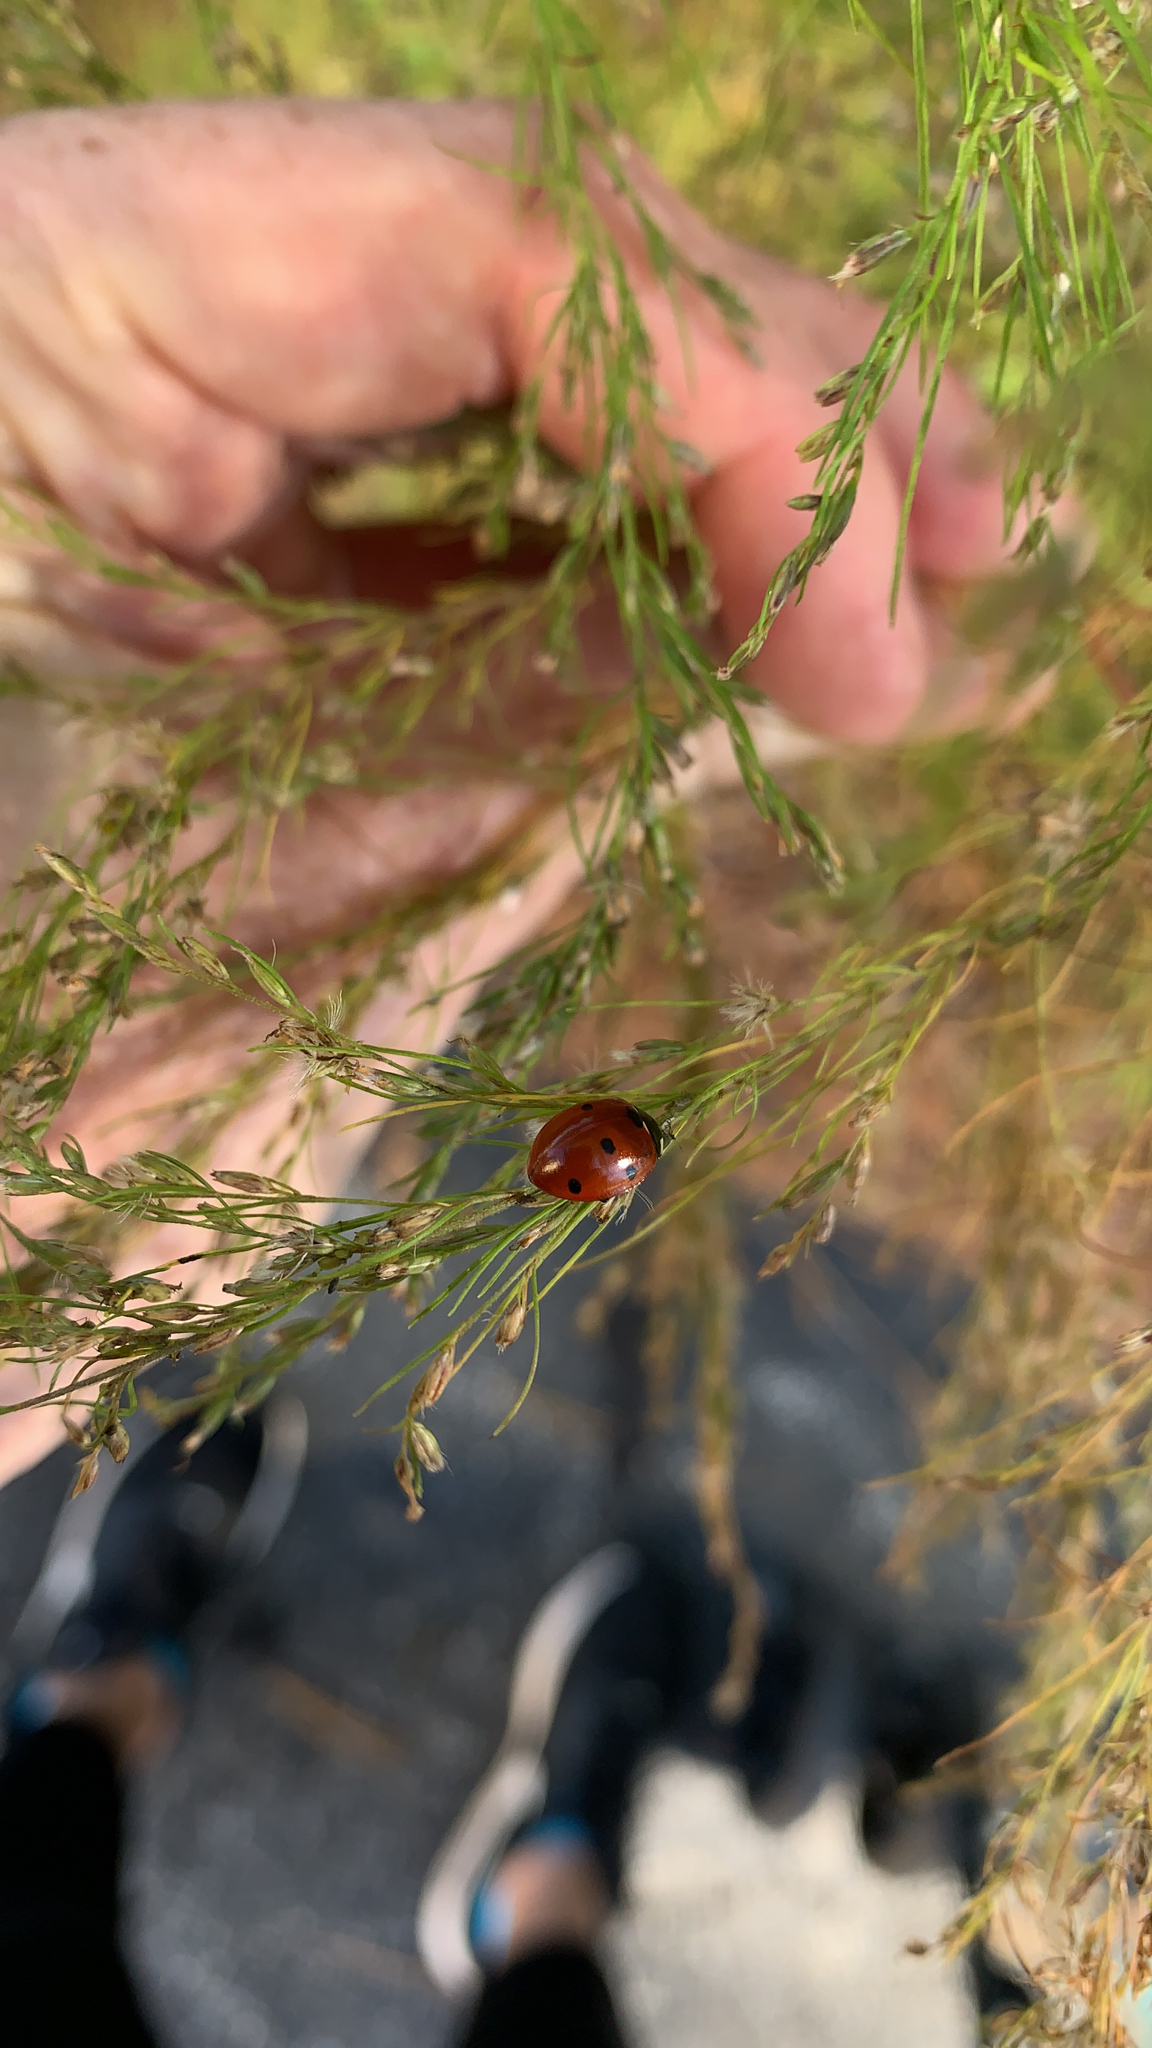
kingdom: Animalia
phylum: Arthropoda
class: Insecta
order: Coleoptera
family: Coccinellidae
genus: Coccinella
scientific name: Coccinella septempunctata
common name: Sevenspotted lady beetle
